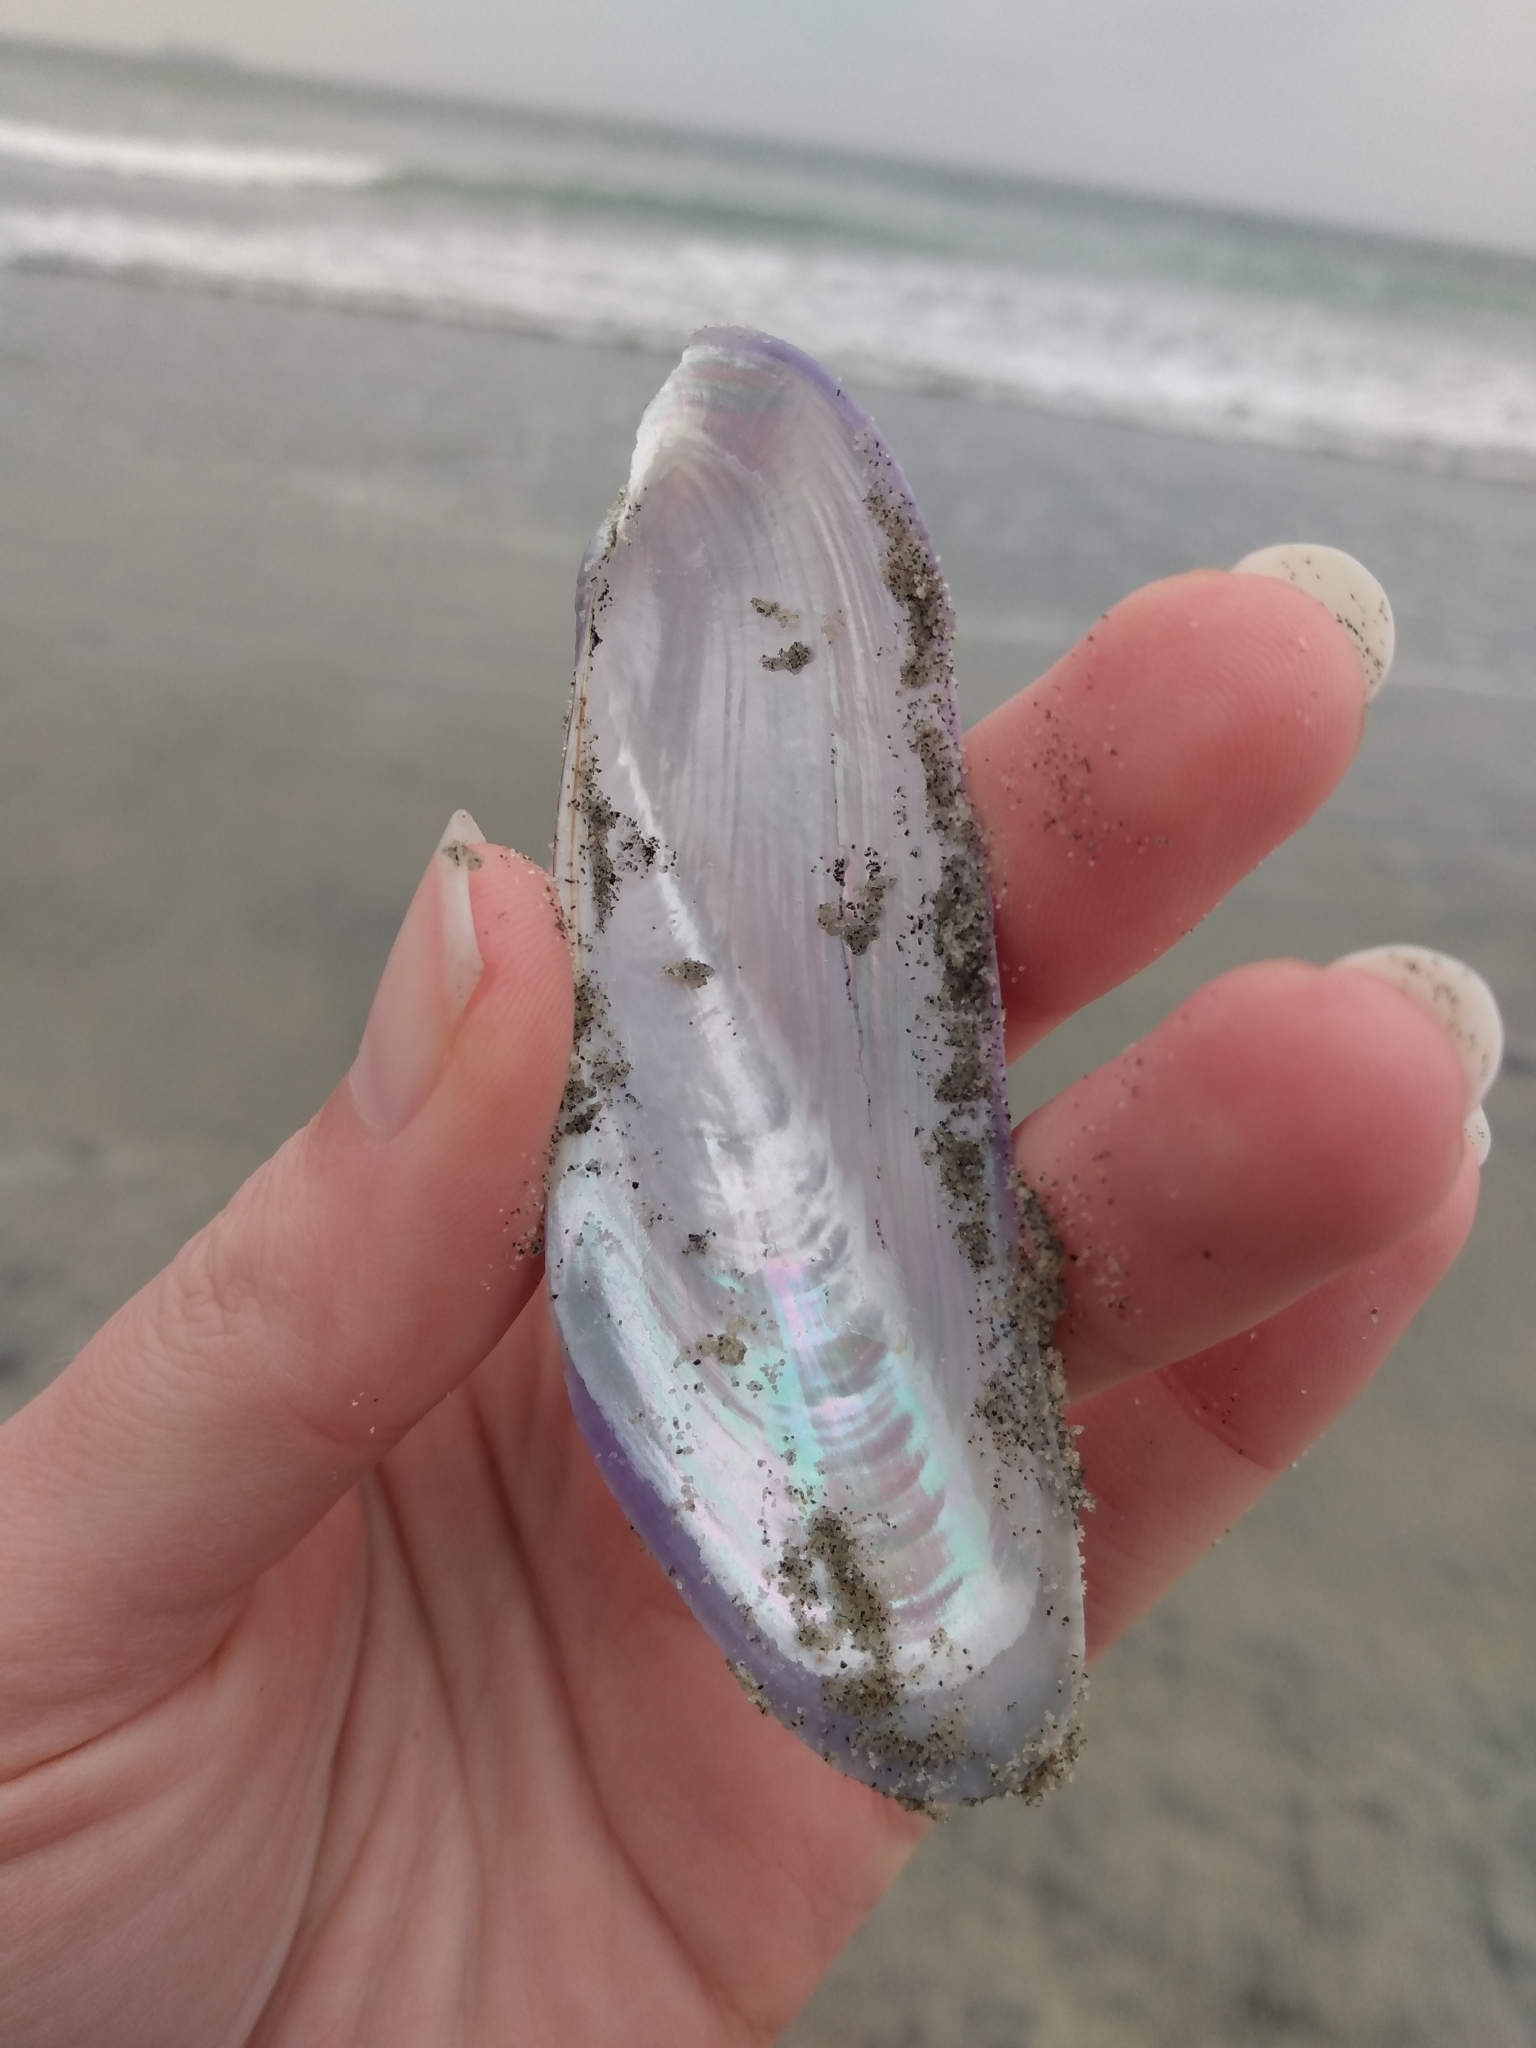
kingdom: Animalia
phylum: Mollusca
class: Bivalvia
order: Mytilida
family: Mytilidae
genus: Modiolatus
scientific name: Modiolatus neglectus
